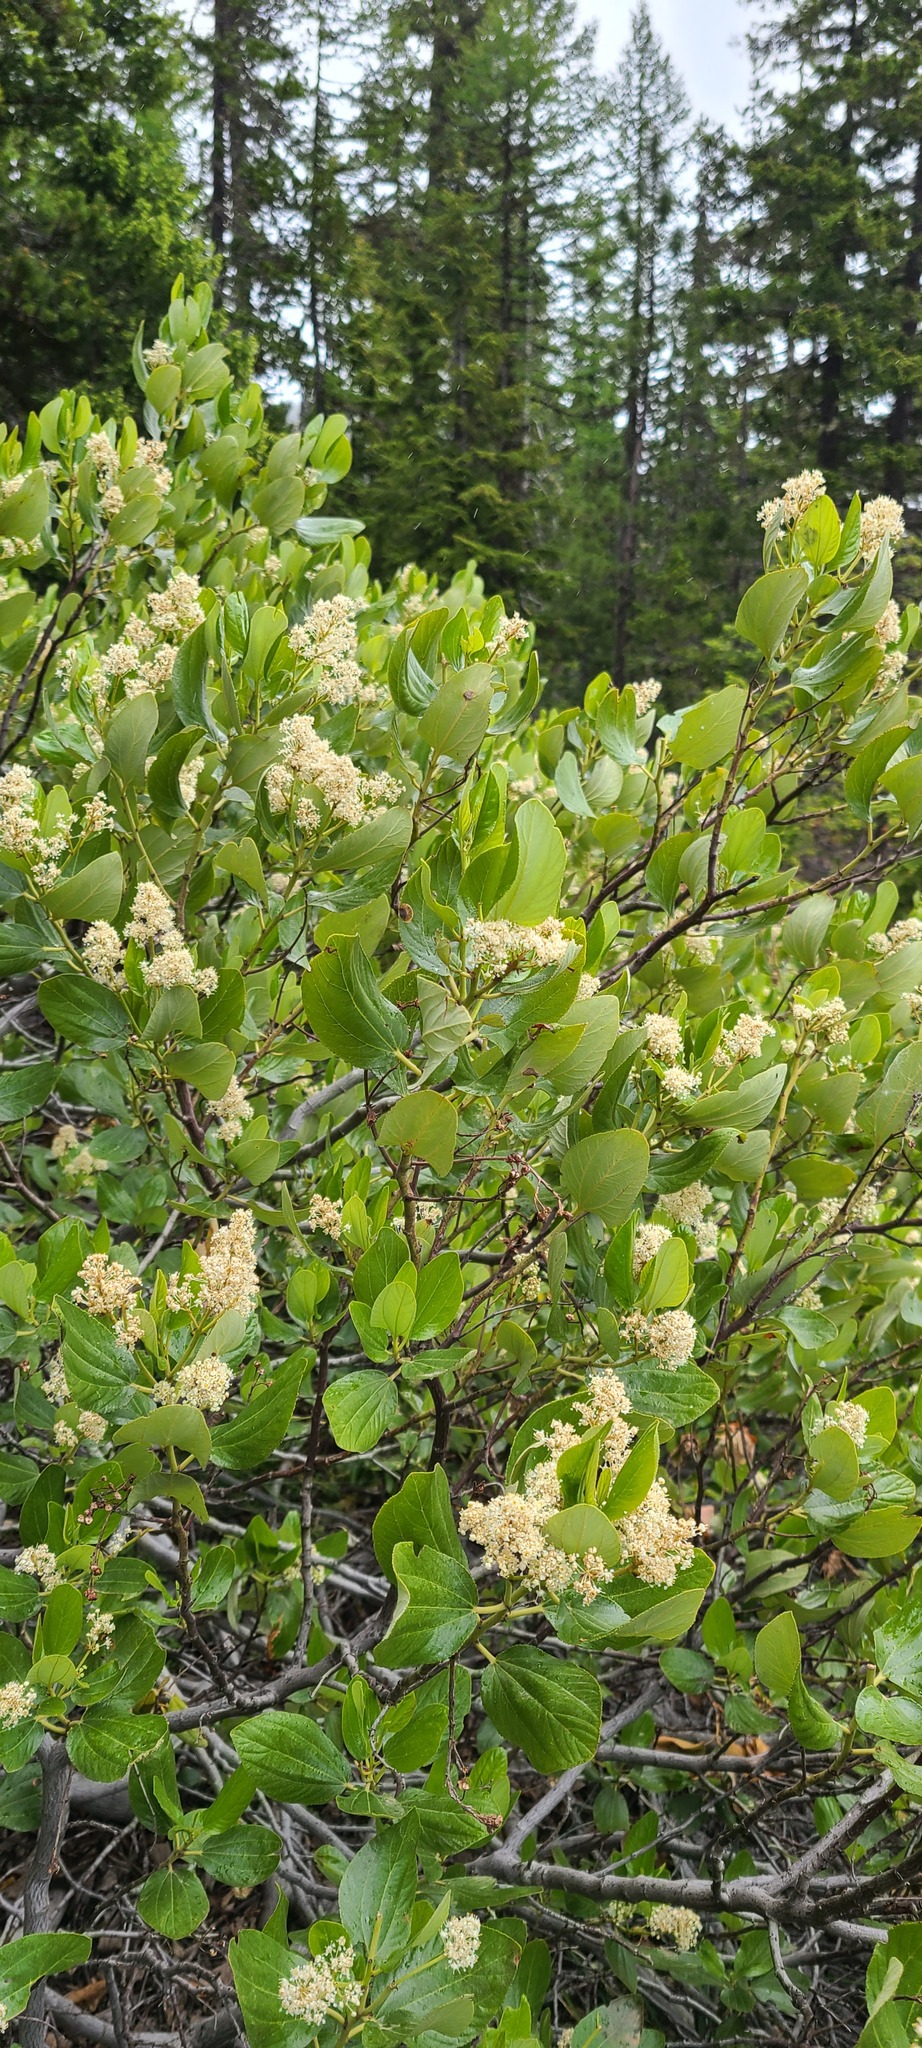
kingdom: Plantae
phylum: Tracheophyta
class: Magnoliopsida
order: Rosales
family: Rhamnaceae
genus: Ceanothus
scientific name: Ceanothus velutinus
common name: Snowbrush
